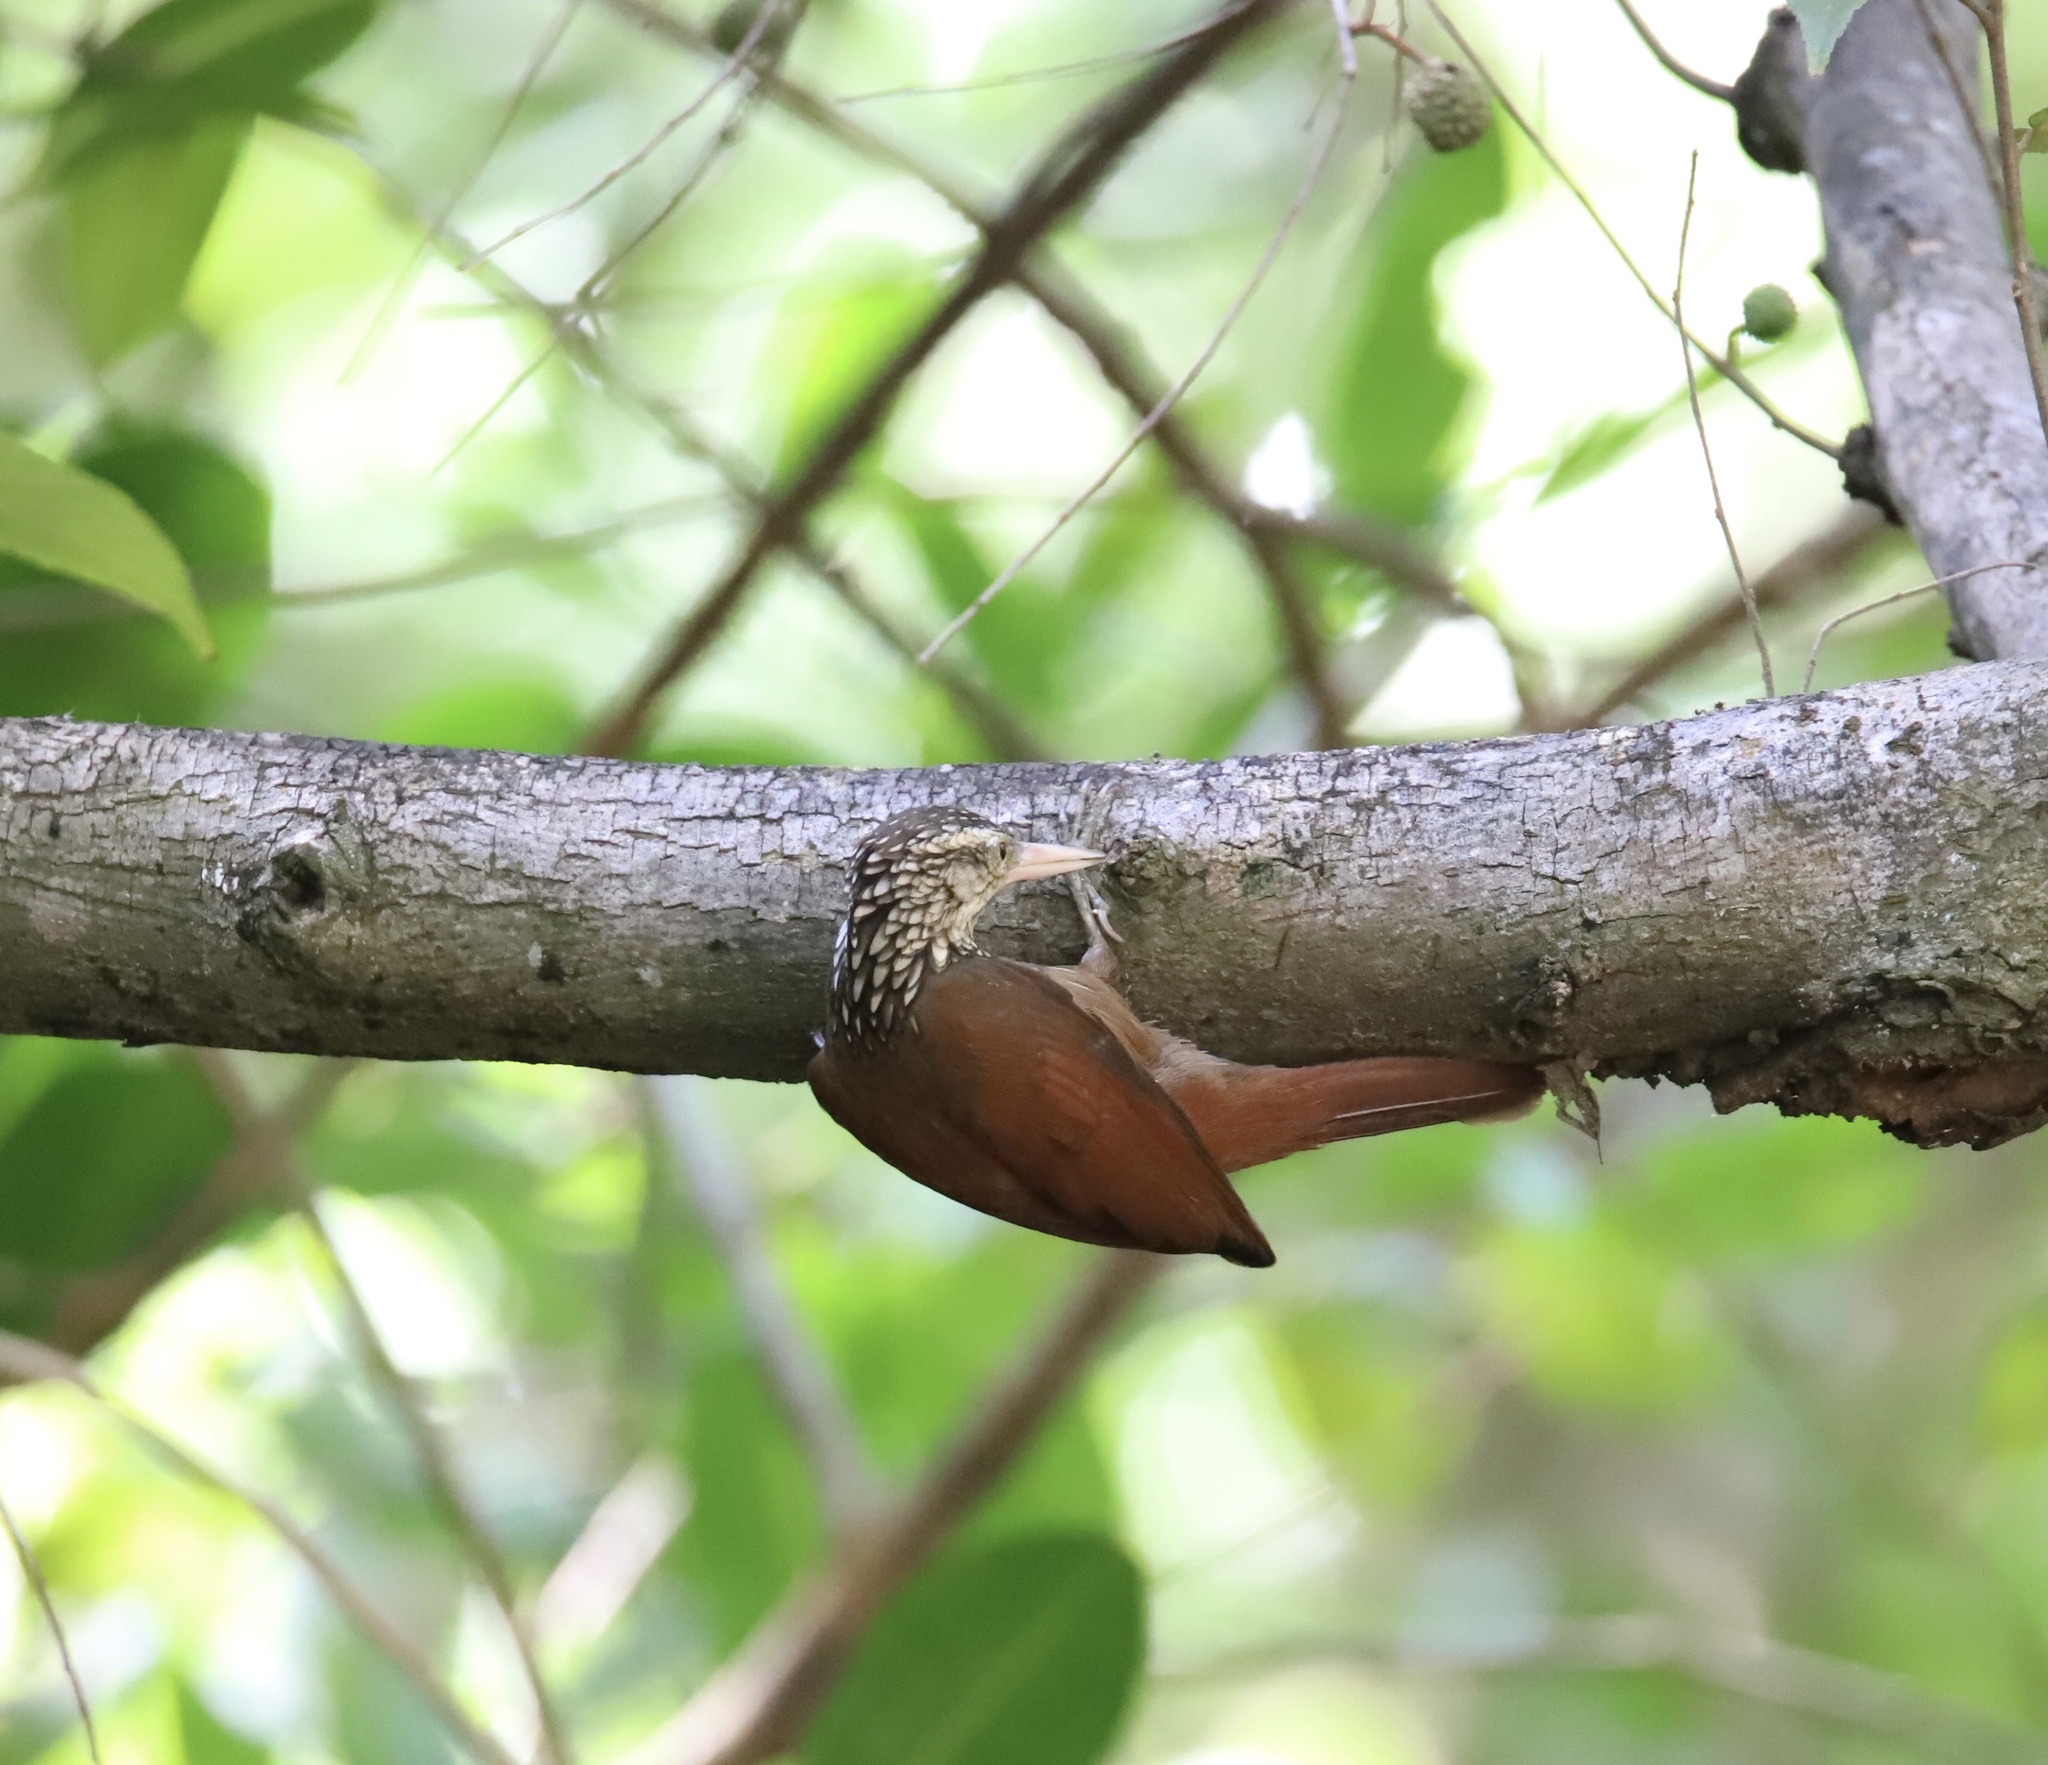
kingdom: Animalia
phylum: Chordata
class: Aves
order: Passeriformes
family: Furnariidae
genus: Xiphorhynchus
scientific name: Xiphorhynchus picus
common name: Straight-billed woodcreeper
